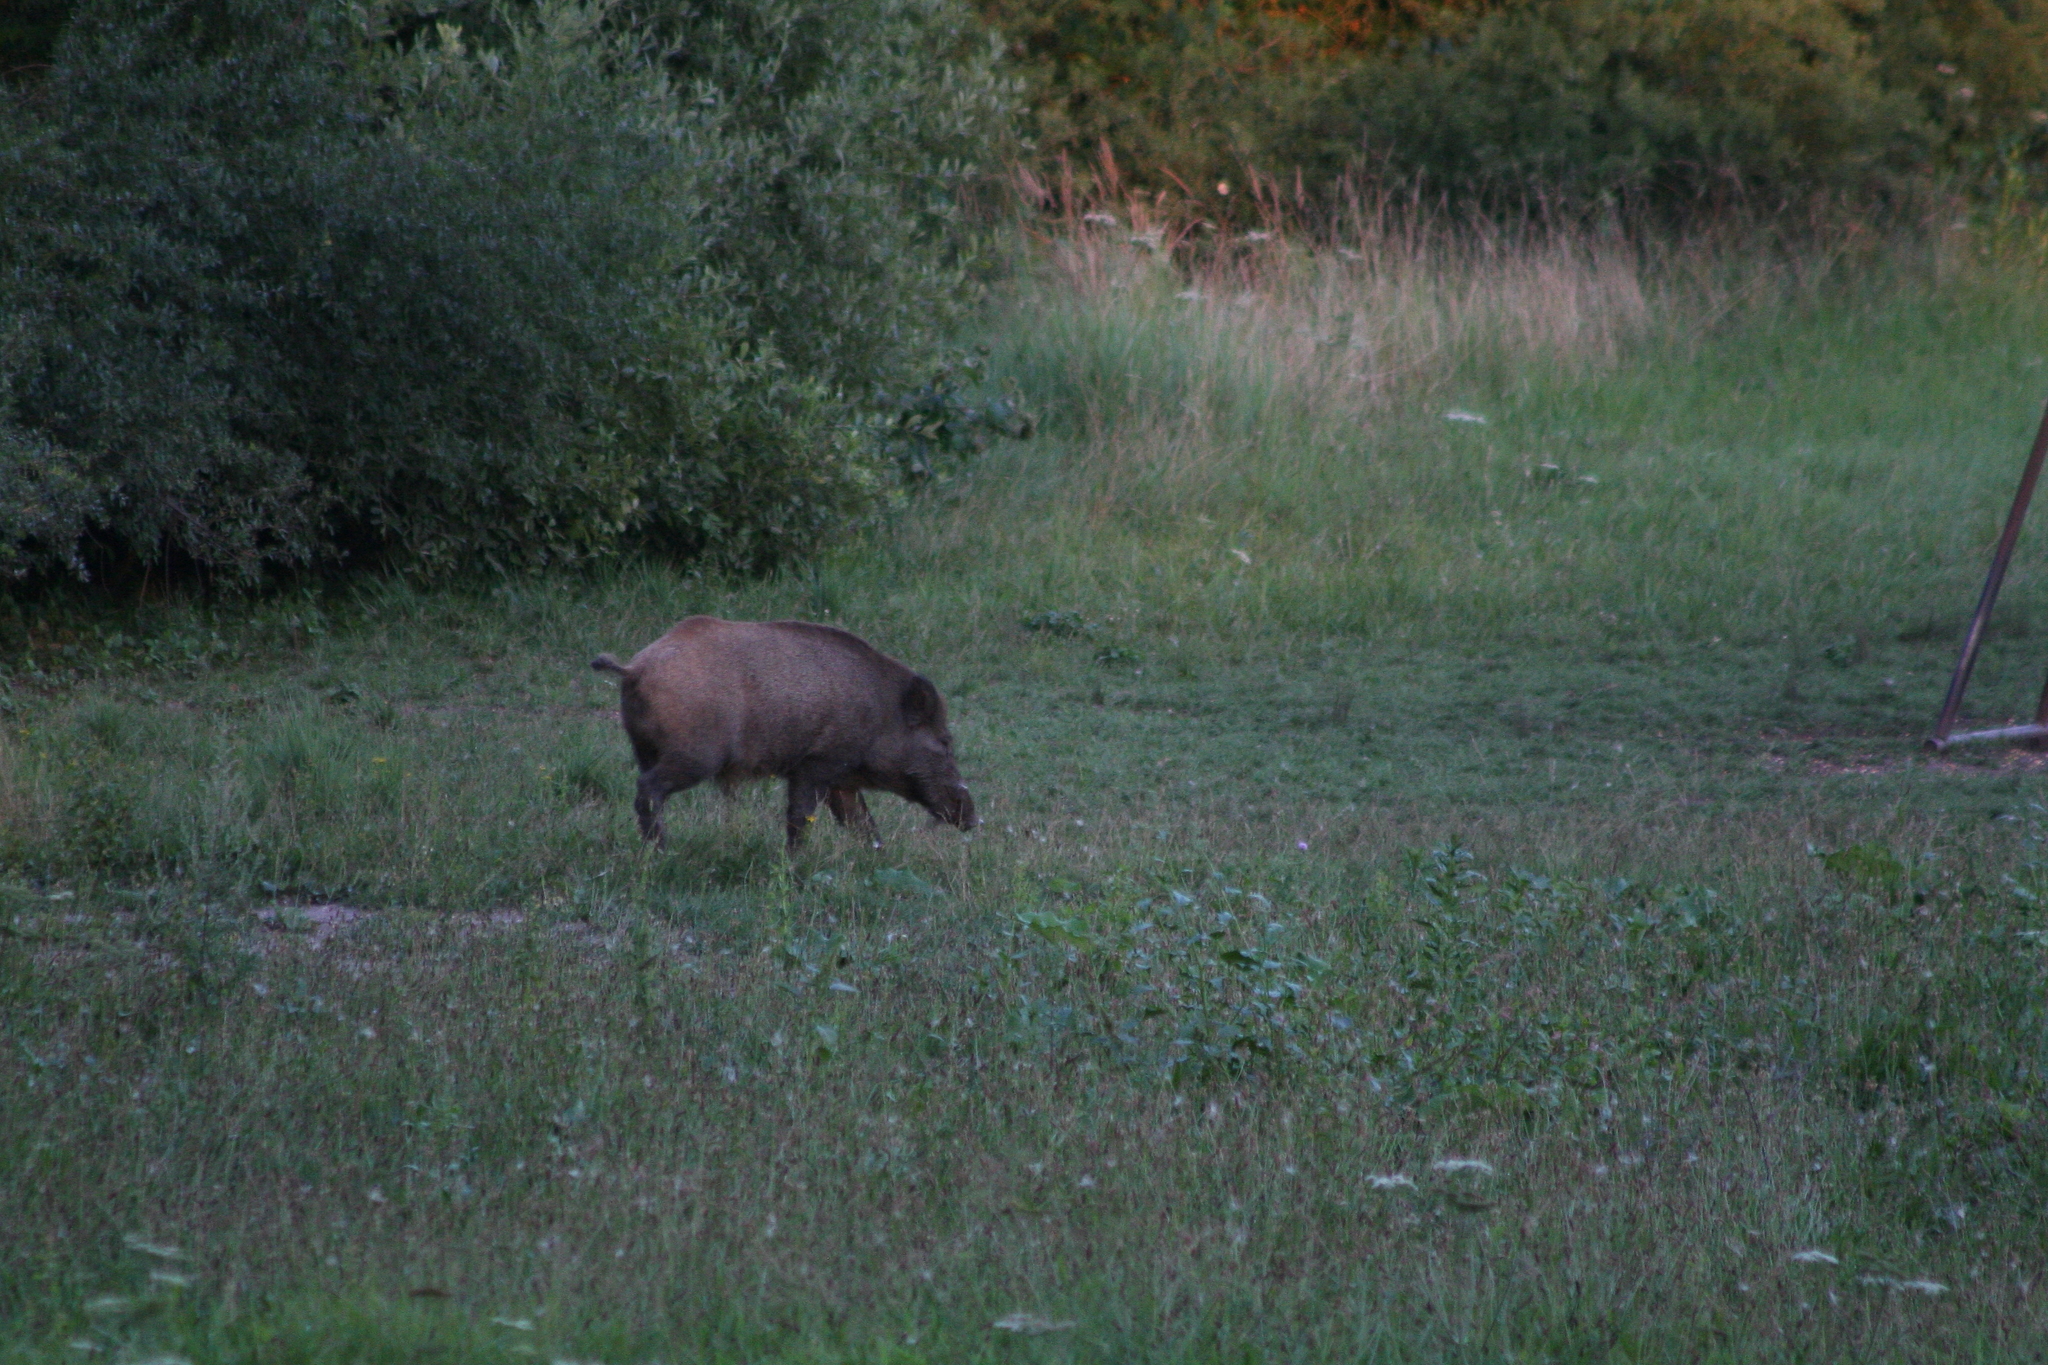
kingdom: Animalia
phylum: Chordata
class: Mammalia
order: Artiodactyla
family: Suidae
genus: Sus
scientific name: Sus scrofa
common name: Wild boar
